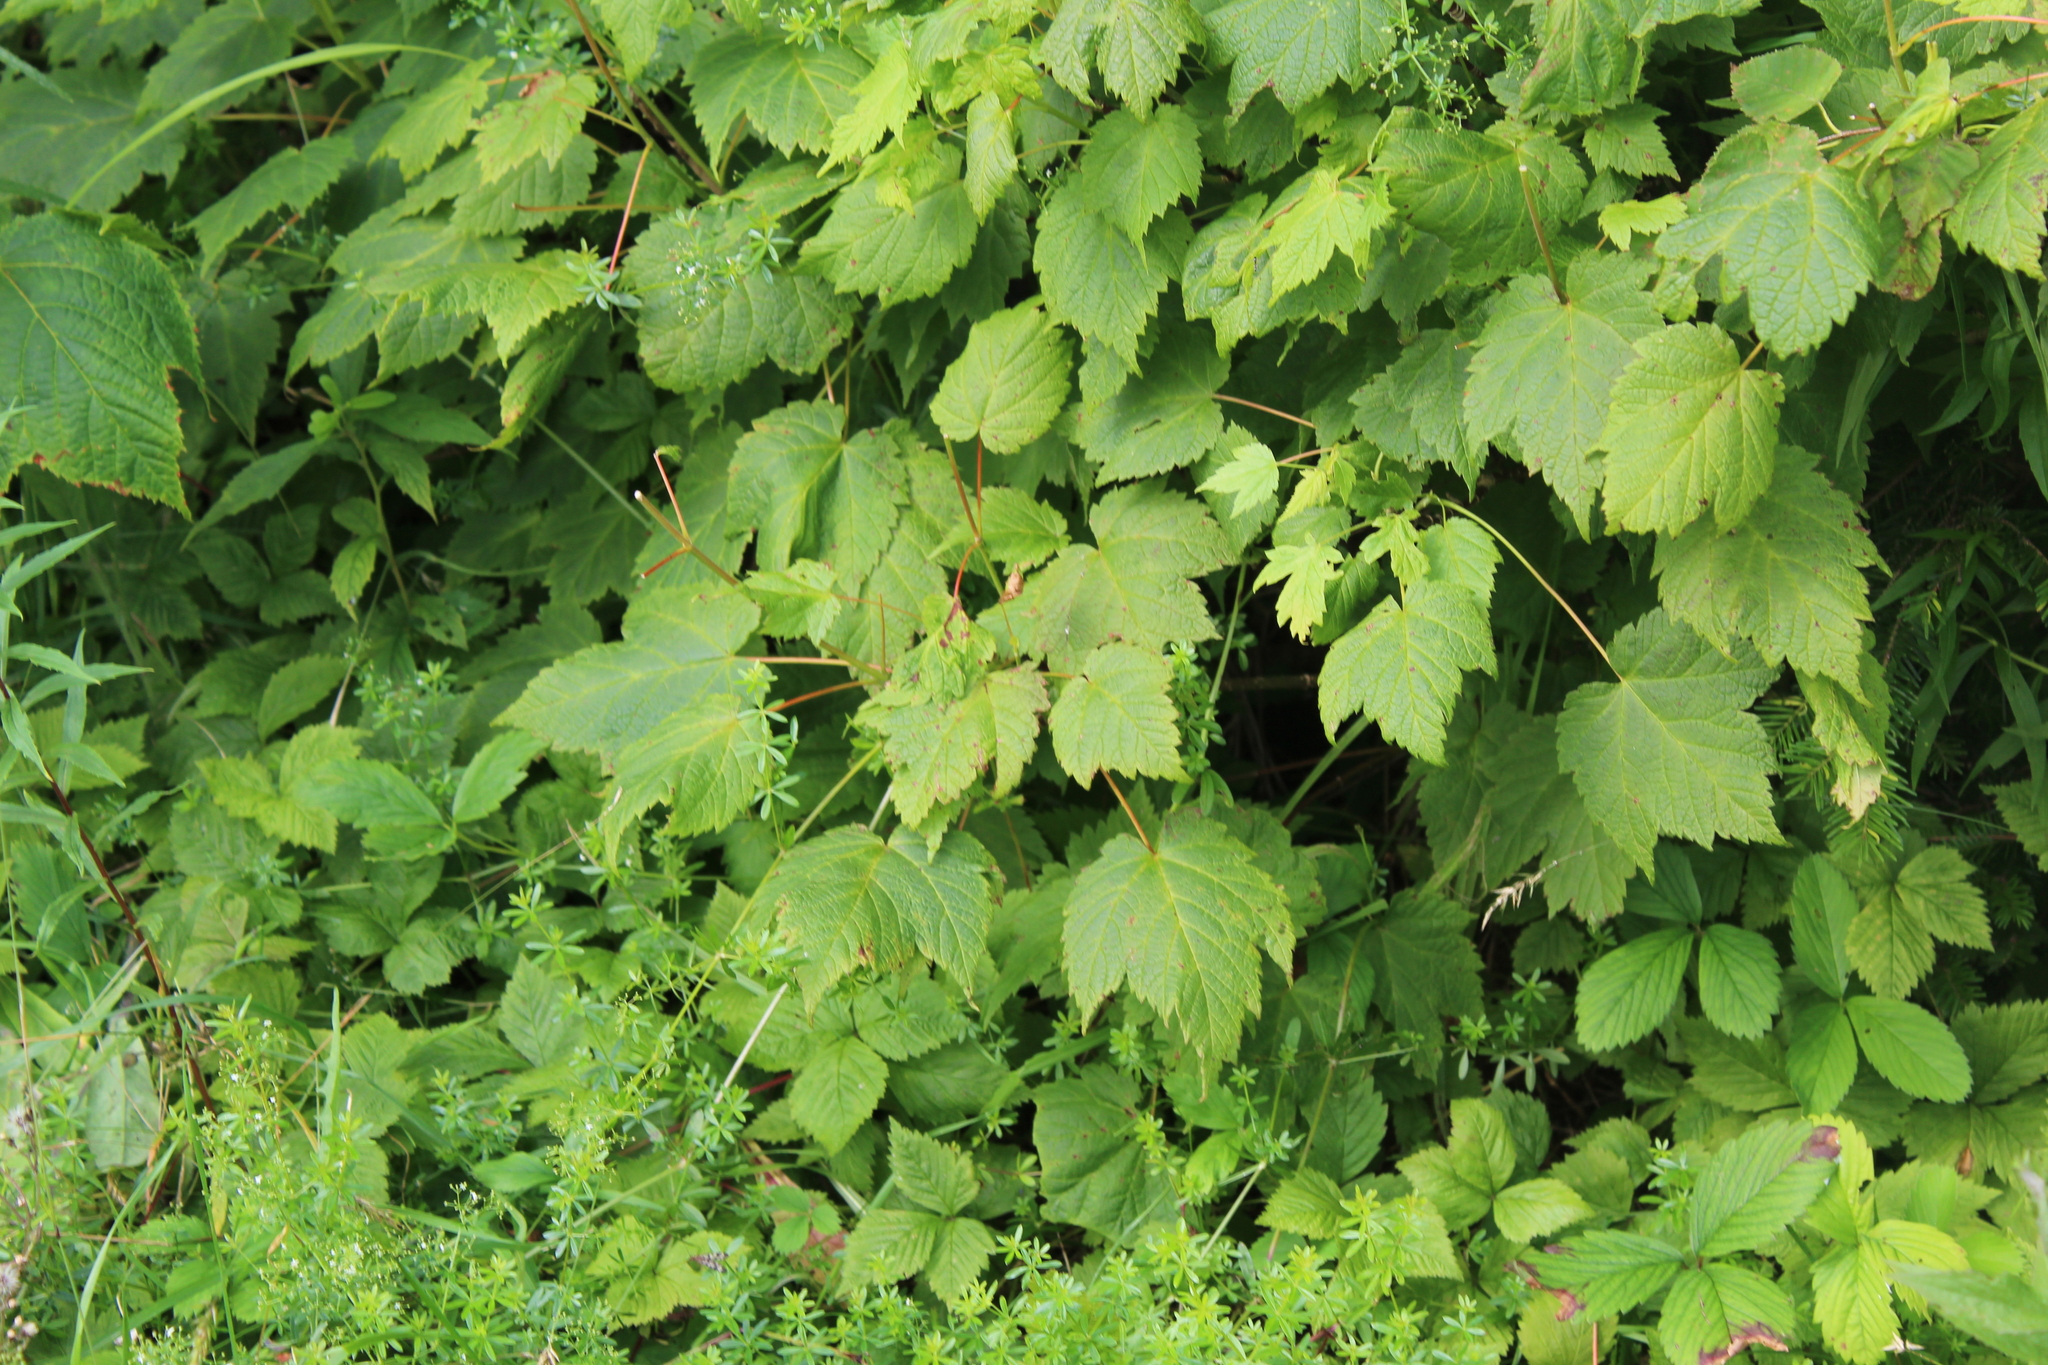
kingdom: Plantae
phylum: Tracheophyta
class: Magnoliopsida
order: Sapindales
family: Sapindaceae
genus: Acer
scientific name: Acer spicatum
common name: Mountain maple
